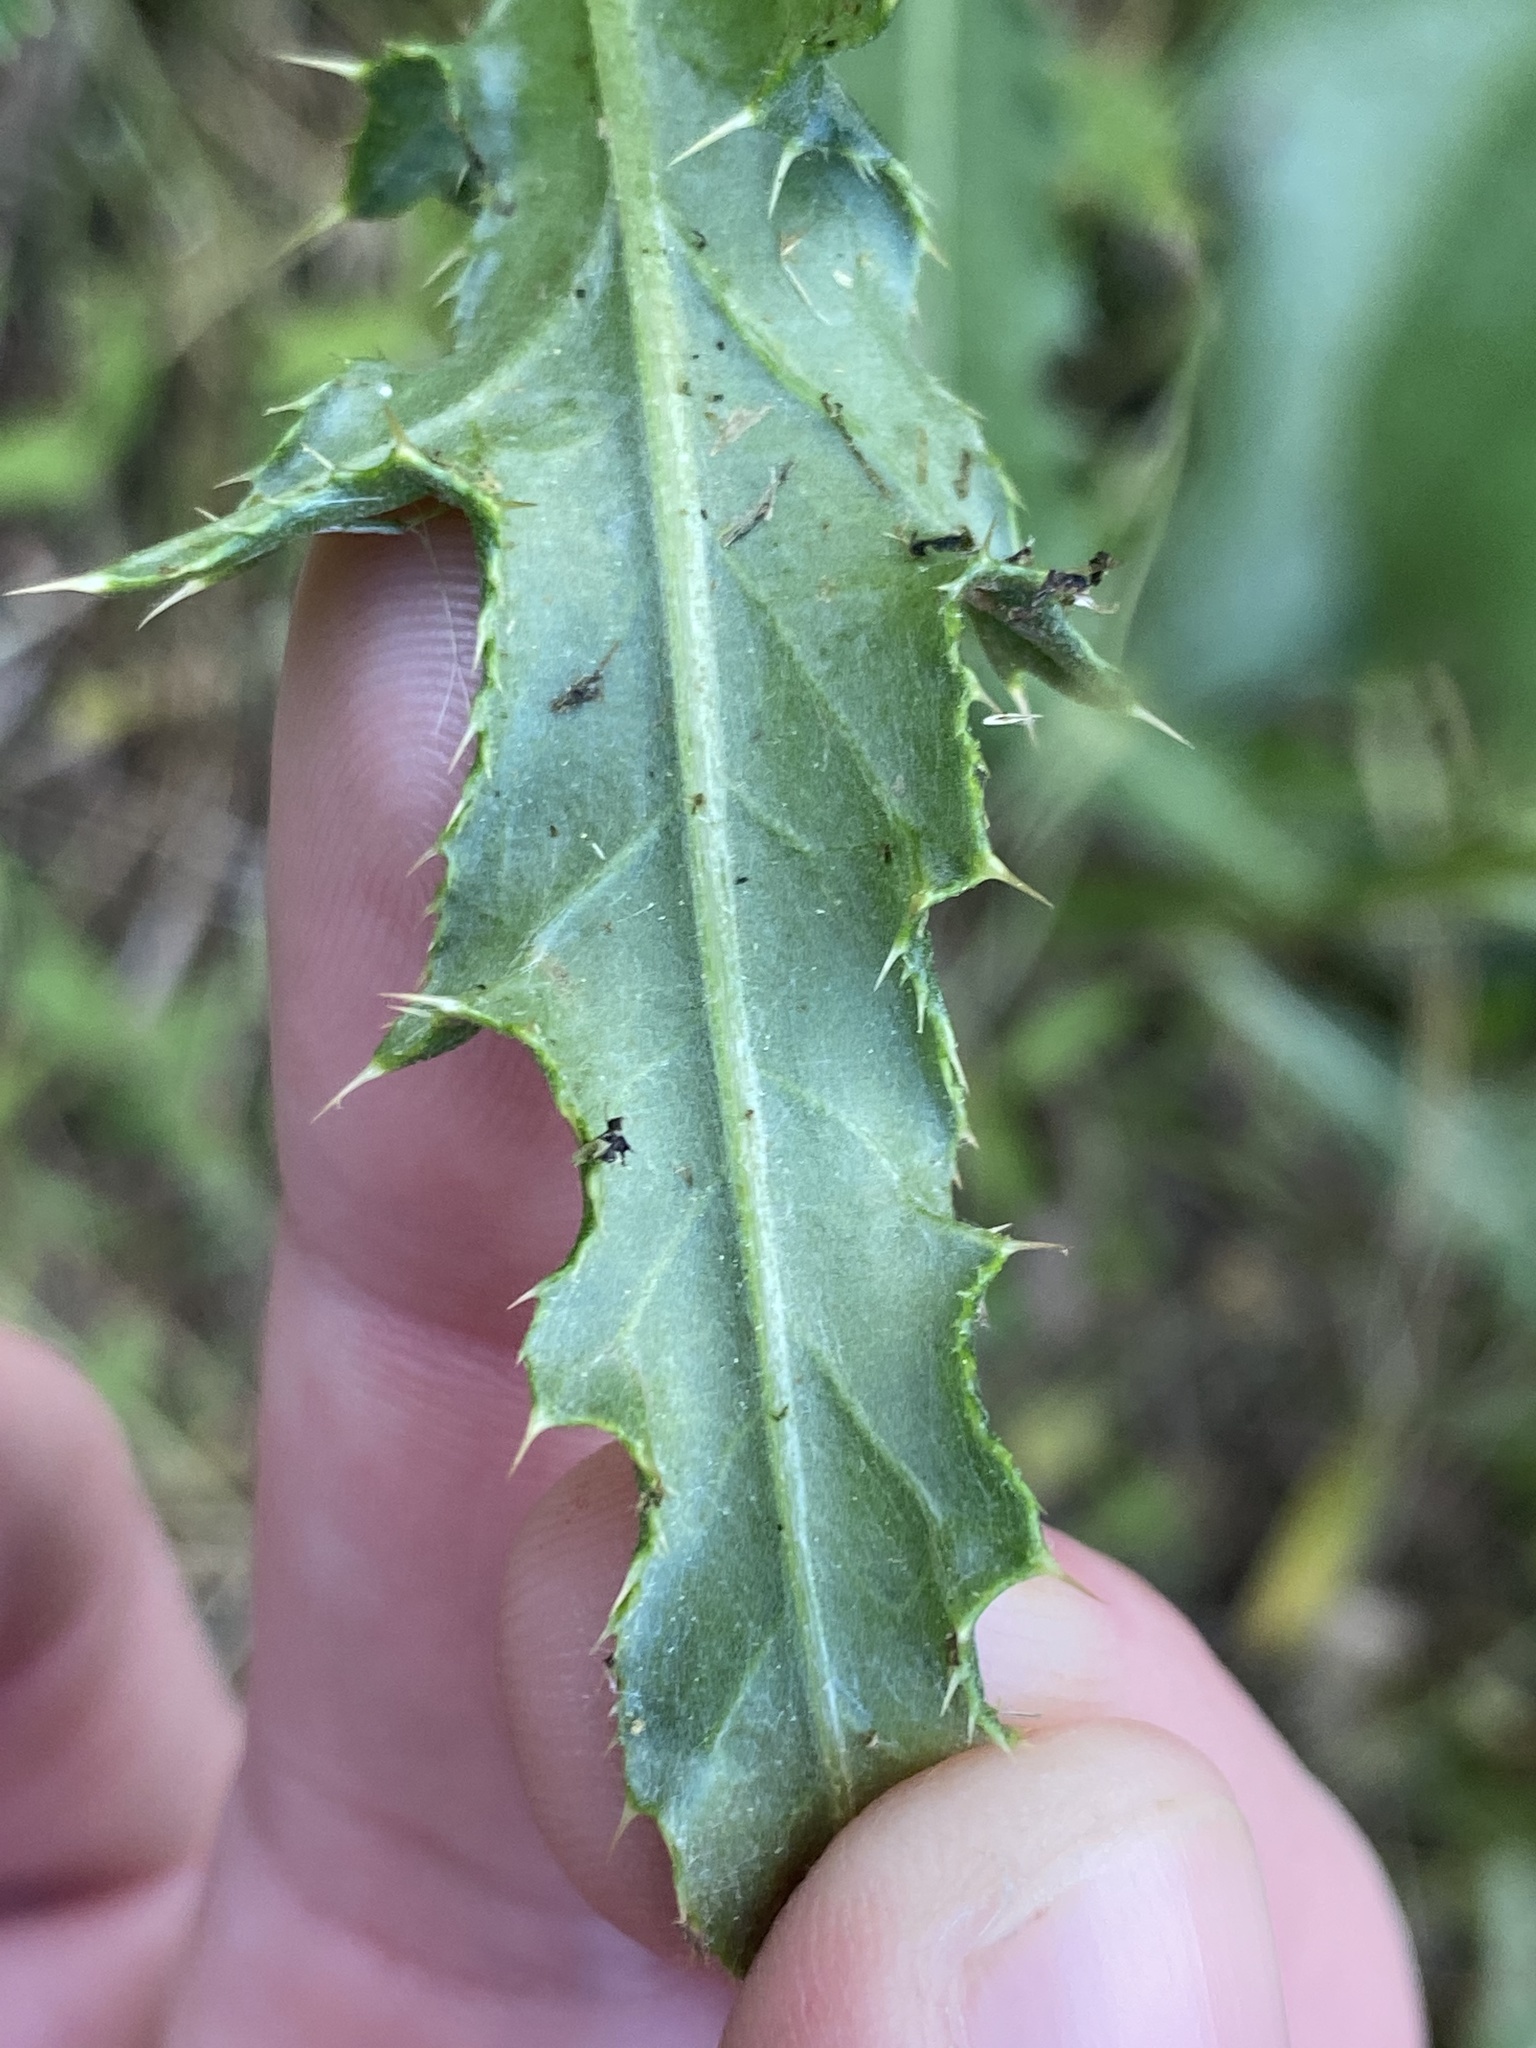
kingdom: Plantae
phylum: Tracheophyta
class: Magnoliopsida
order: Asterales
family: Asteraceae
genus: Cirsium
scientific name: Cirsium arvense
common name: Creeping thistle
